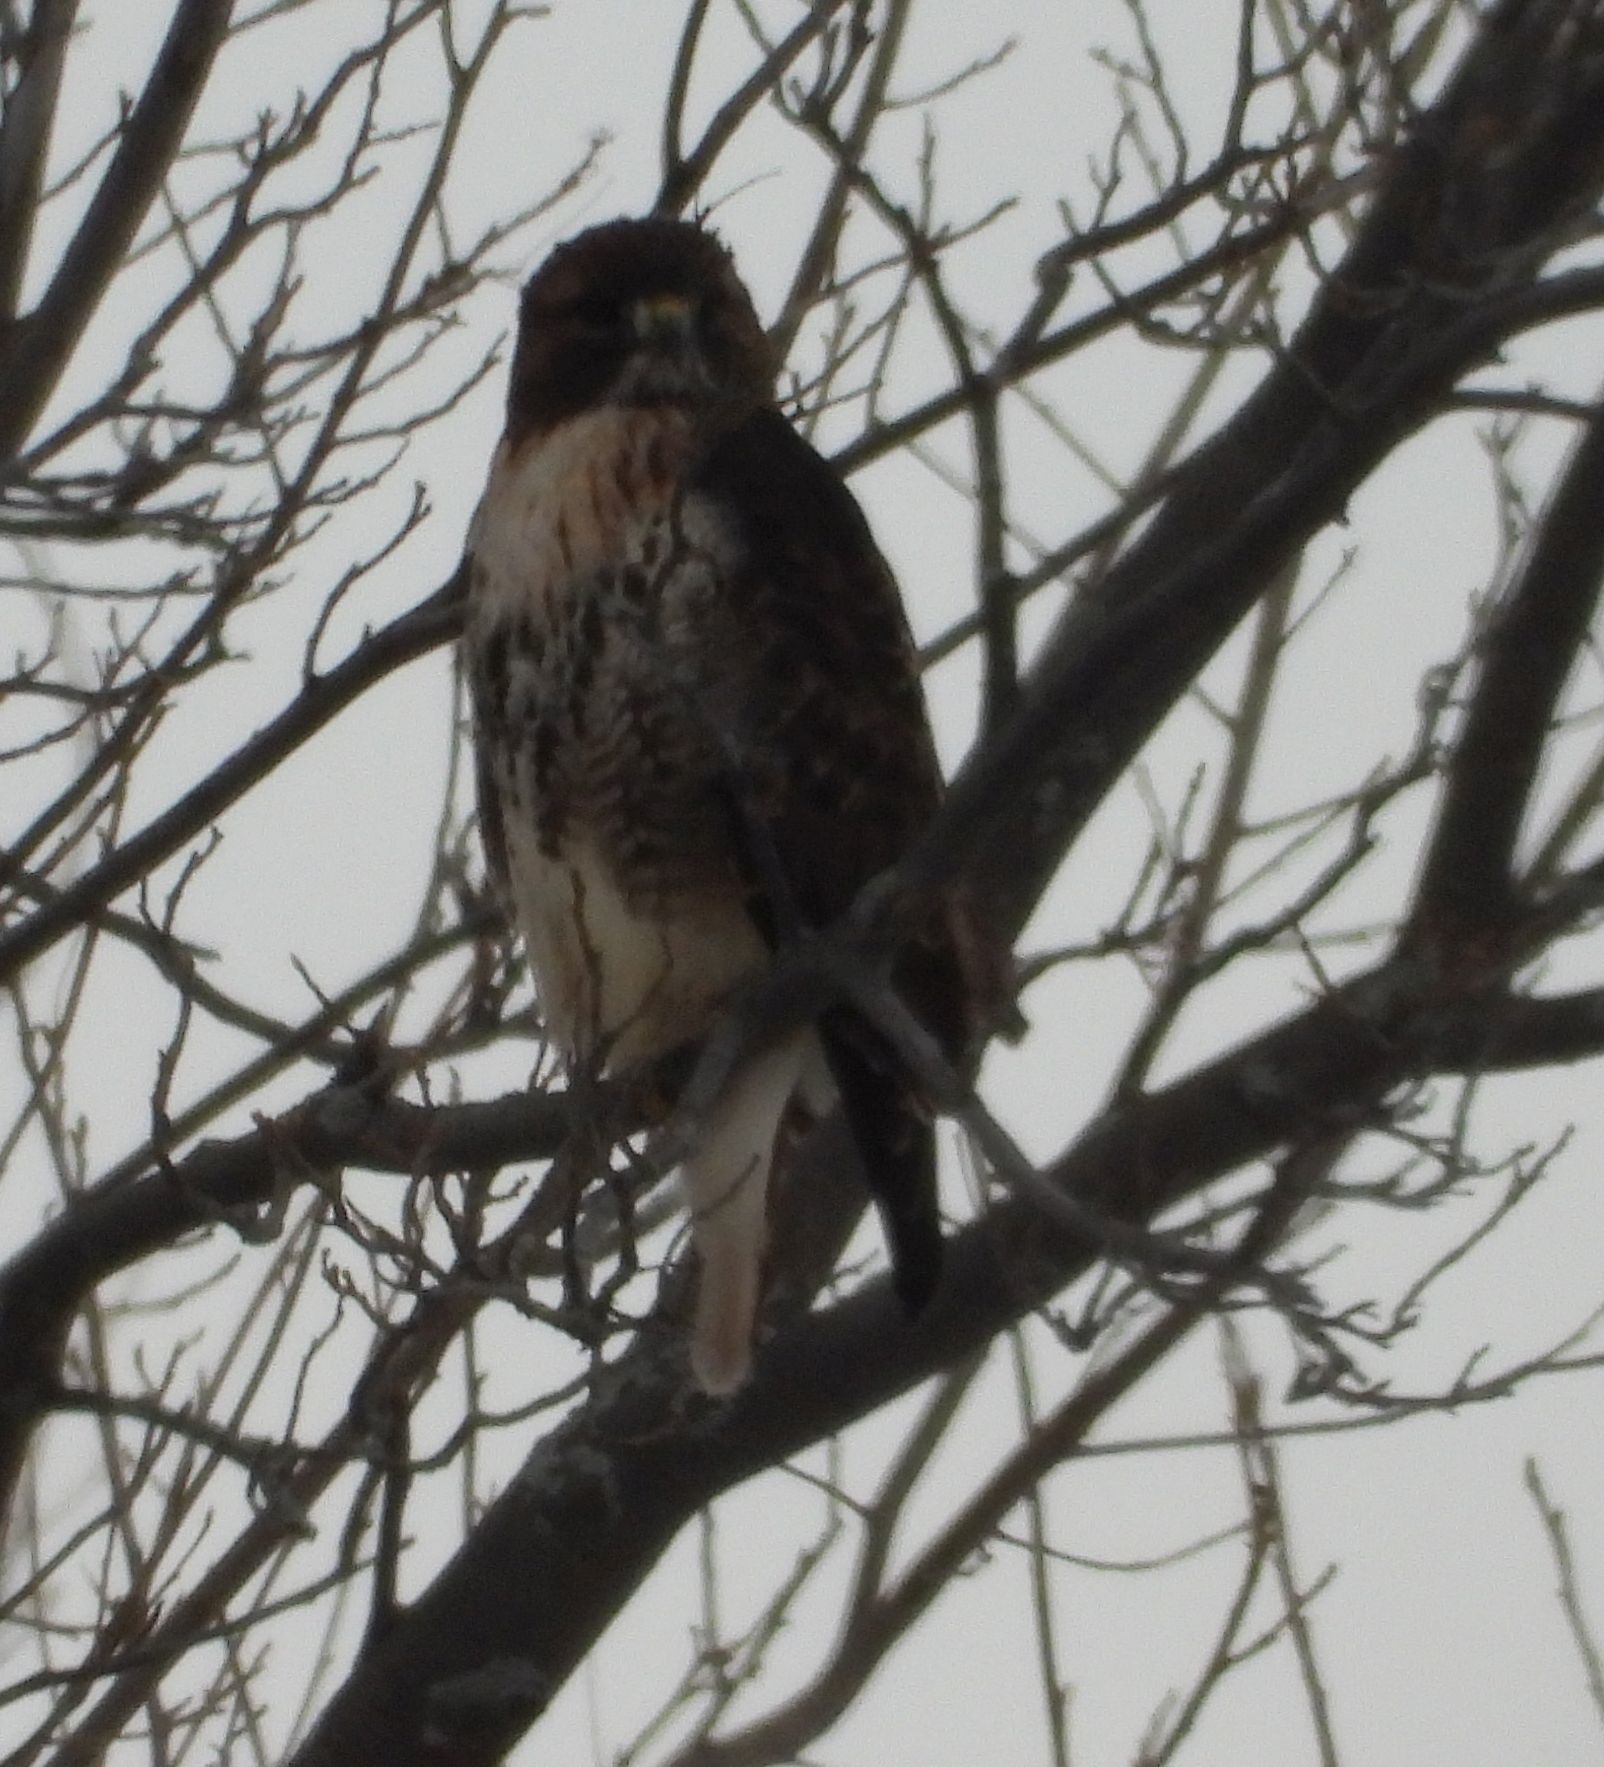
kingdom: Animalia
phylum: Chordata
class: Aves
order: Accipitriformes
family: Accipitridae
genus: Buteo
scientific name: Buteo jamaicensis
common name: Red-tailed hawk
